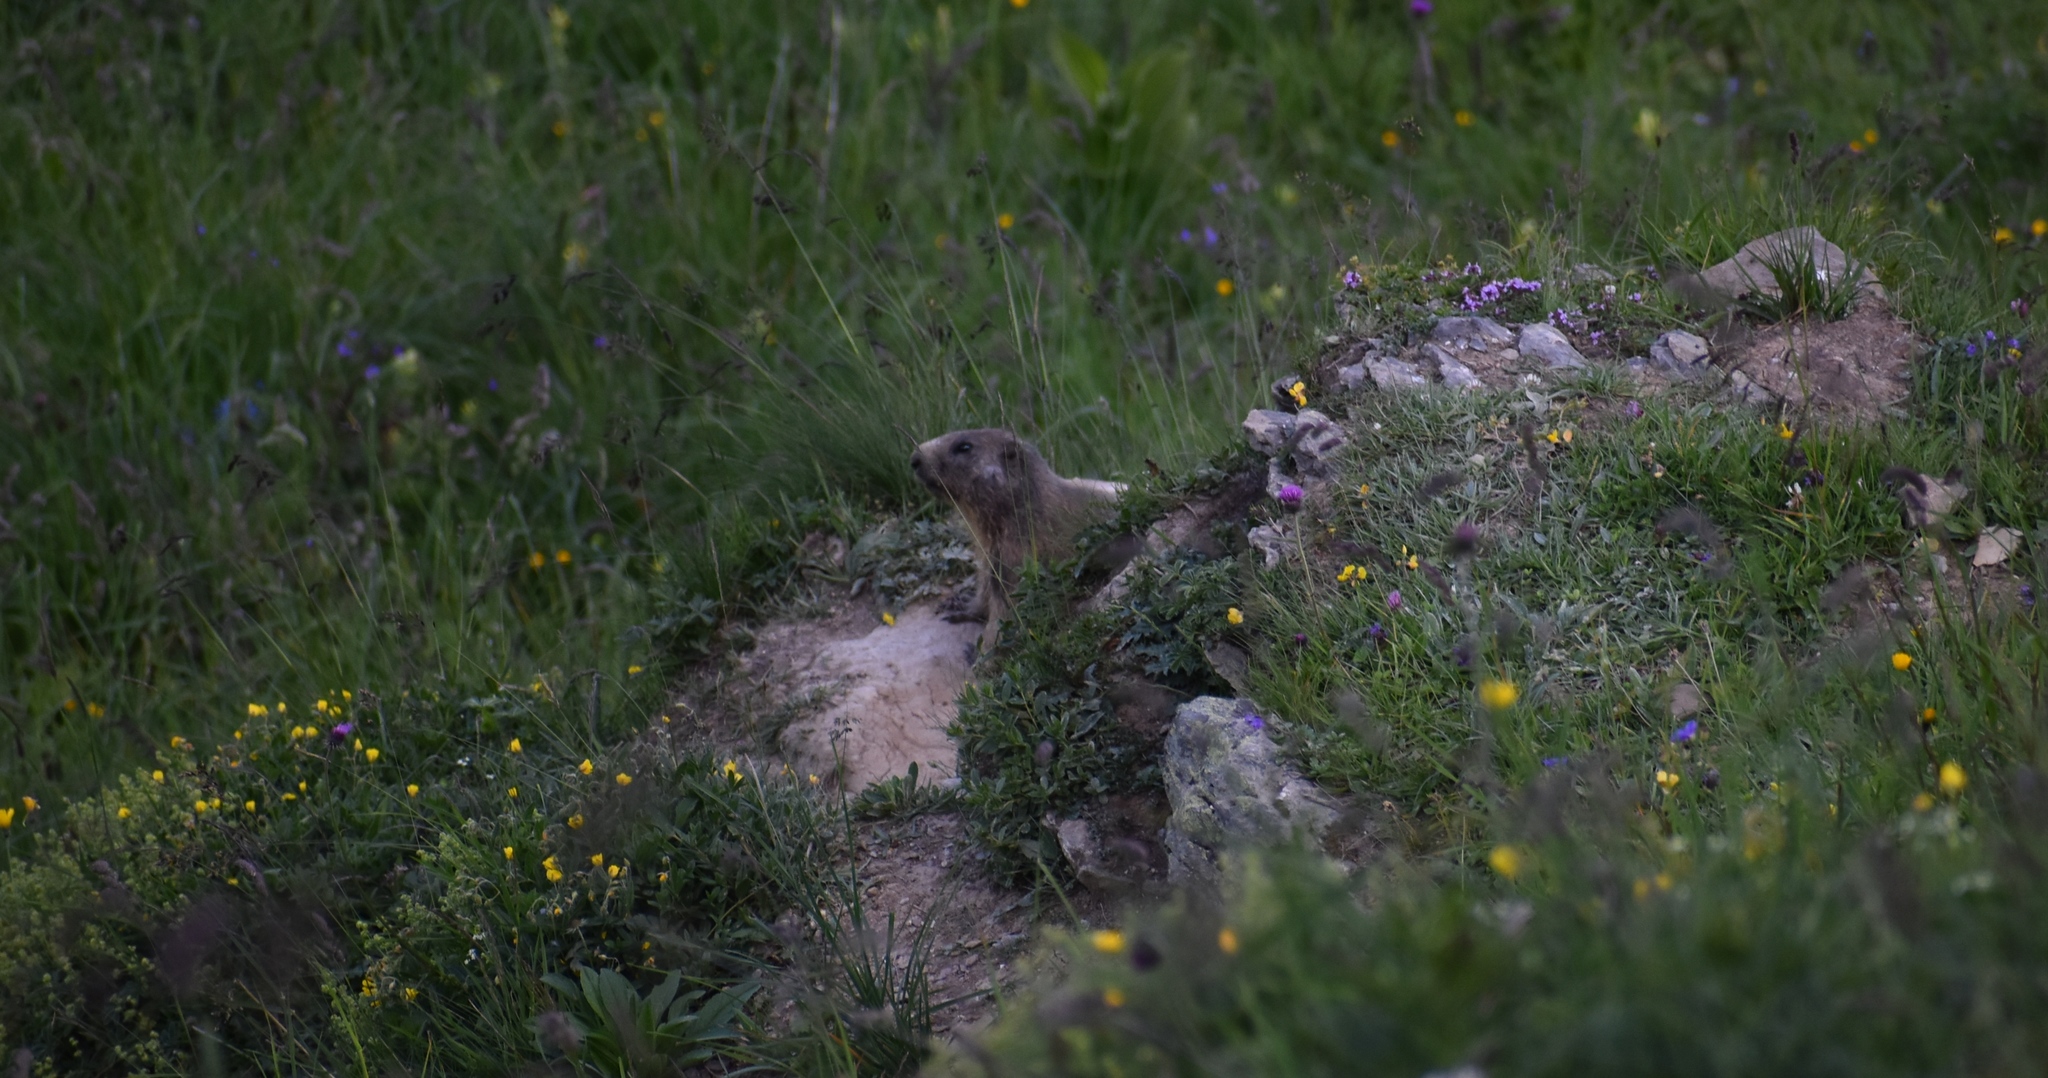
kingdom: Animalia
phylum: Chordata
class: Mammalia
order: Rodentia
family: Sciuridae
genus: Marmota
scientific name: Marmota marmota
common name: Alpine marmot
